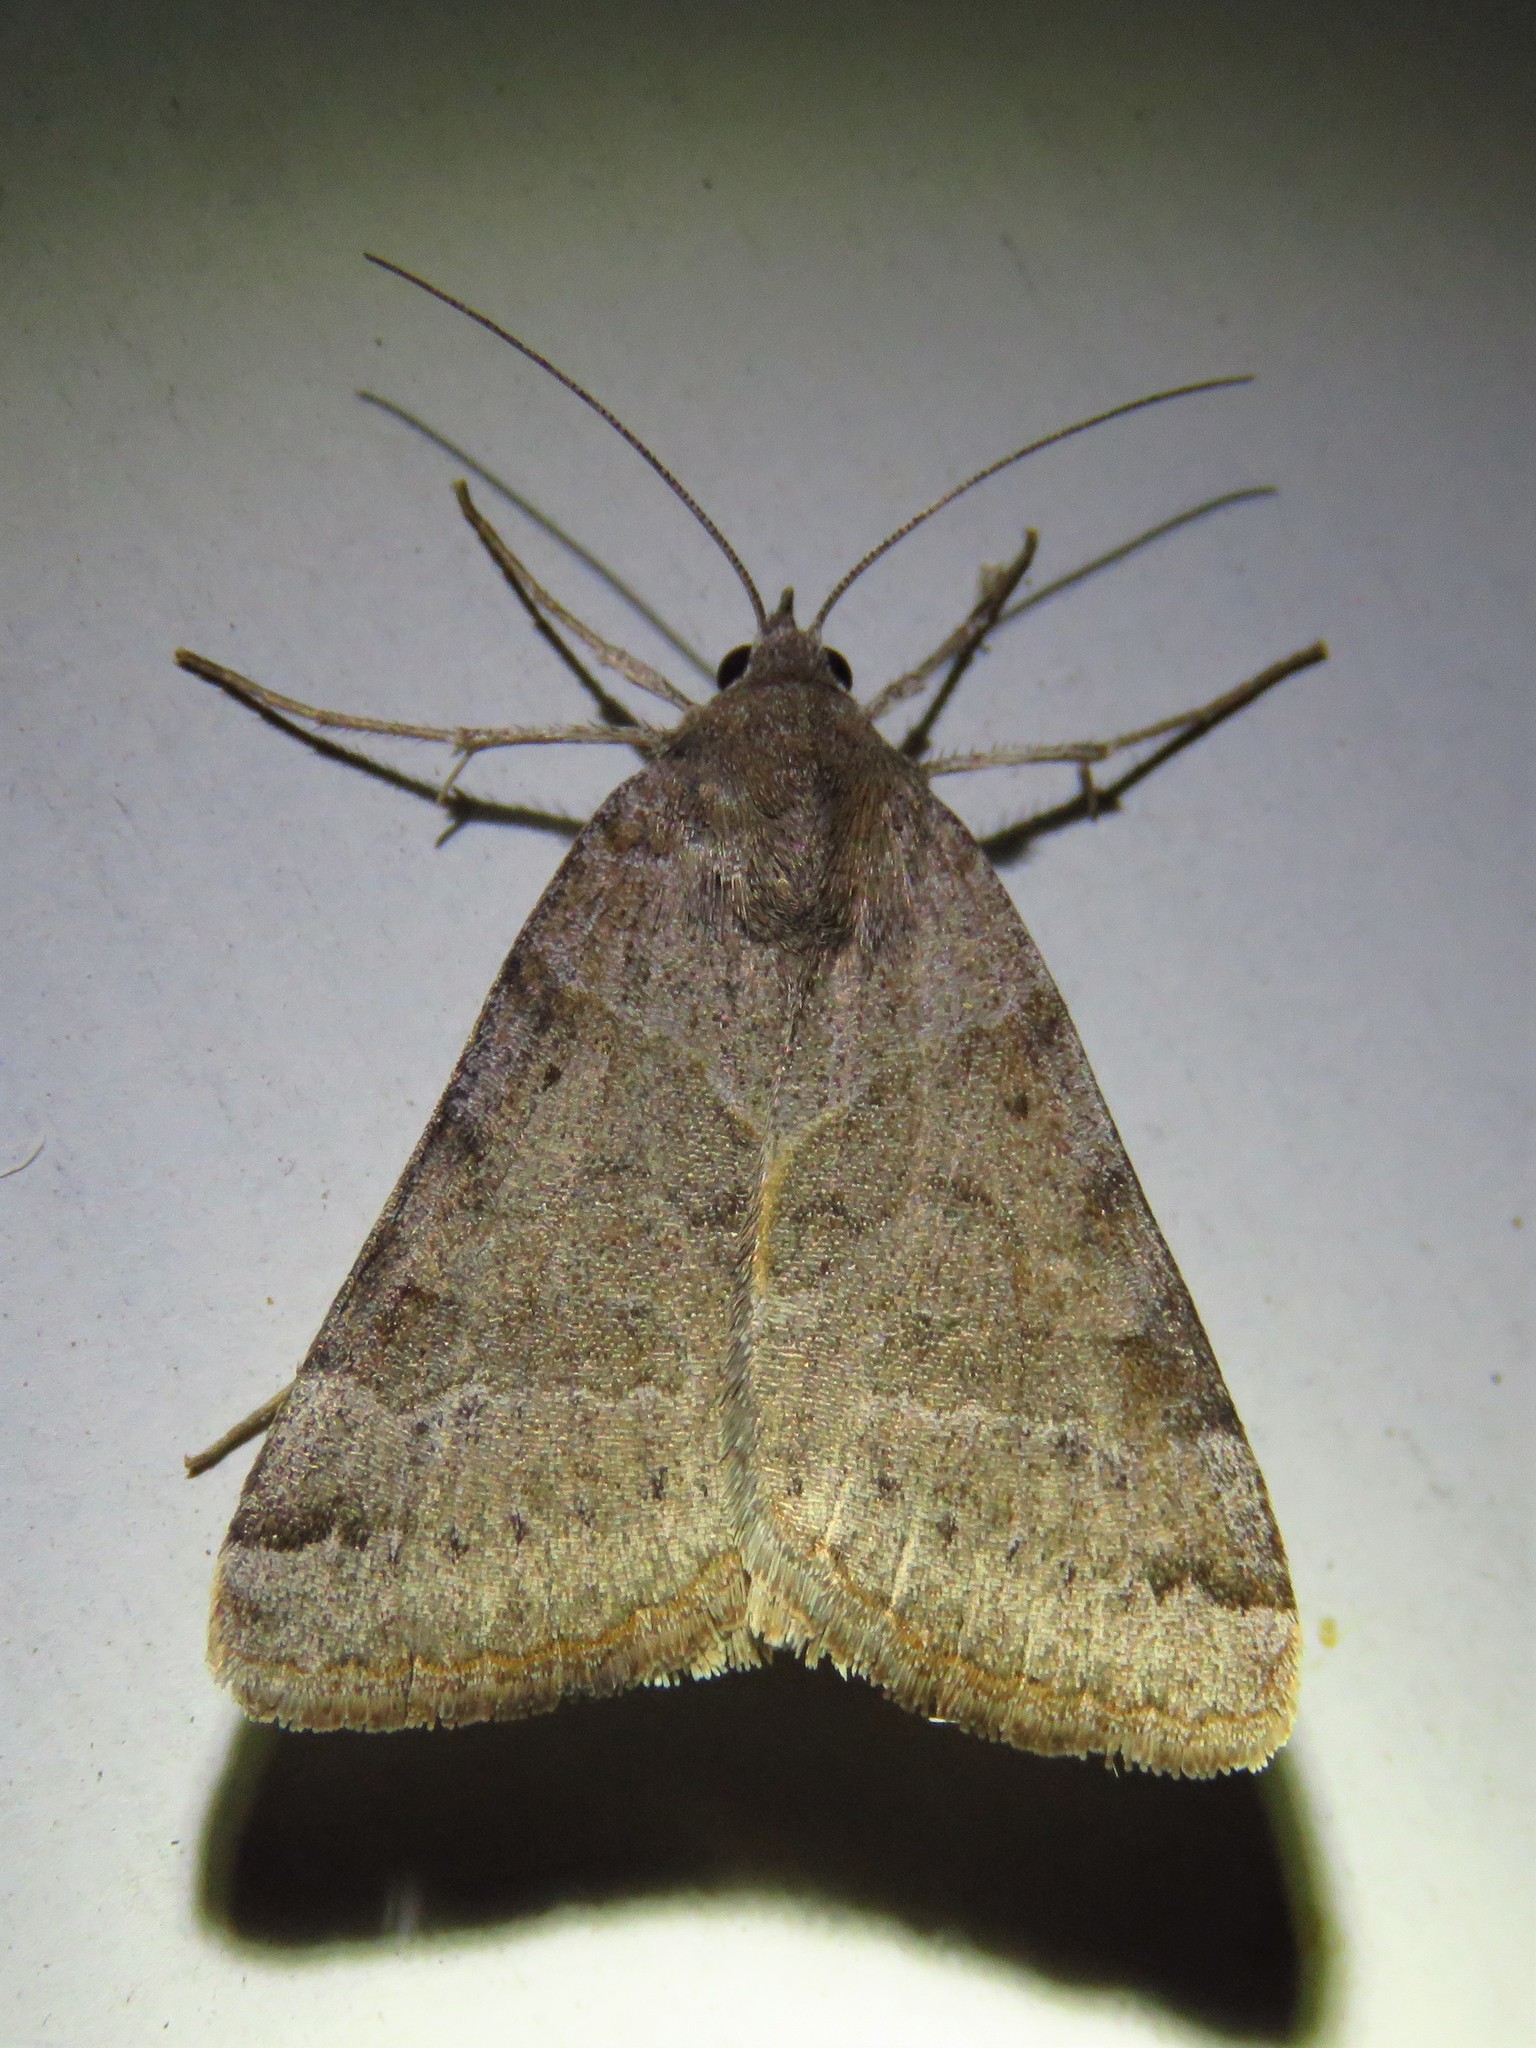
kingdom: Animalia
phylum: Arthropoda
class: Insecta
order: Lepidoptera
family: Erebidae
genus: Caenurgina
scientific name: Caenurgina erechtea
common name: Forage looper moth
